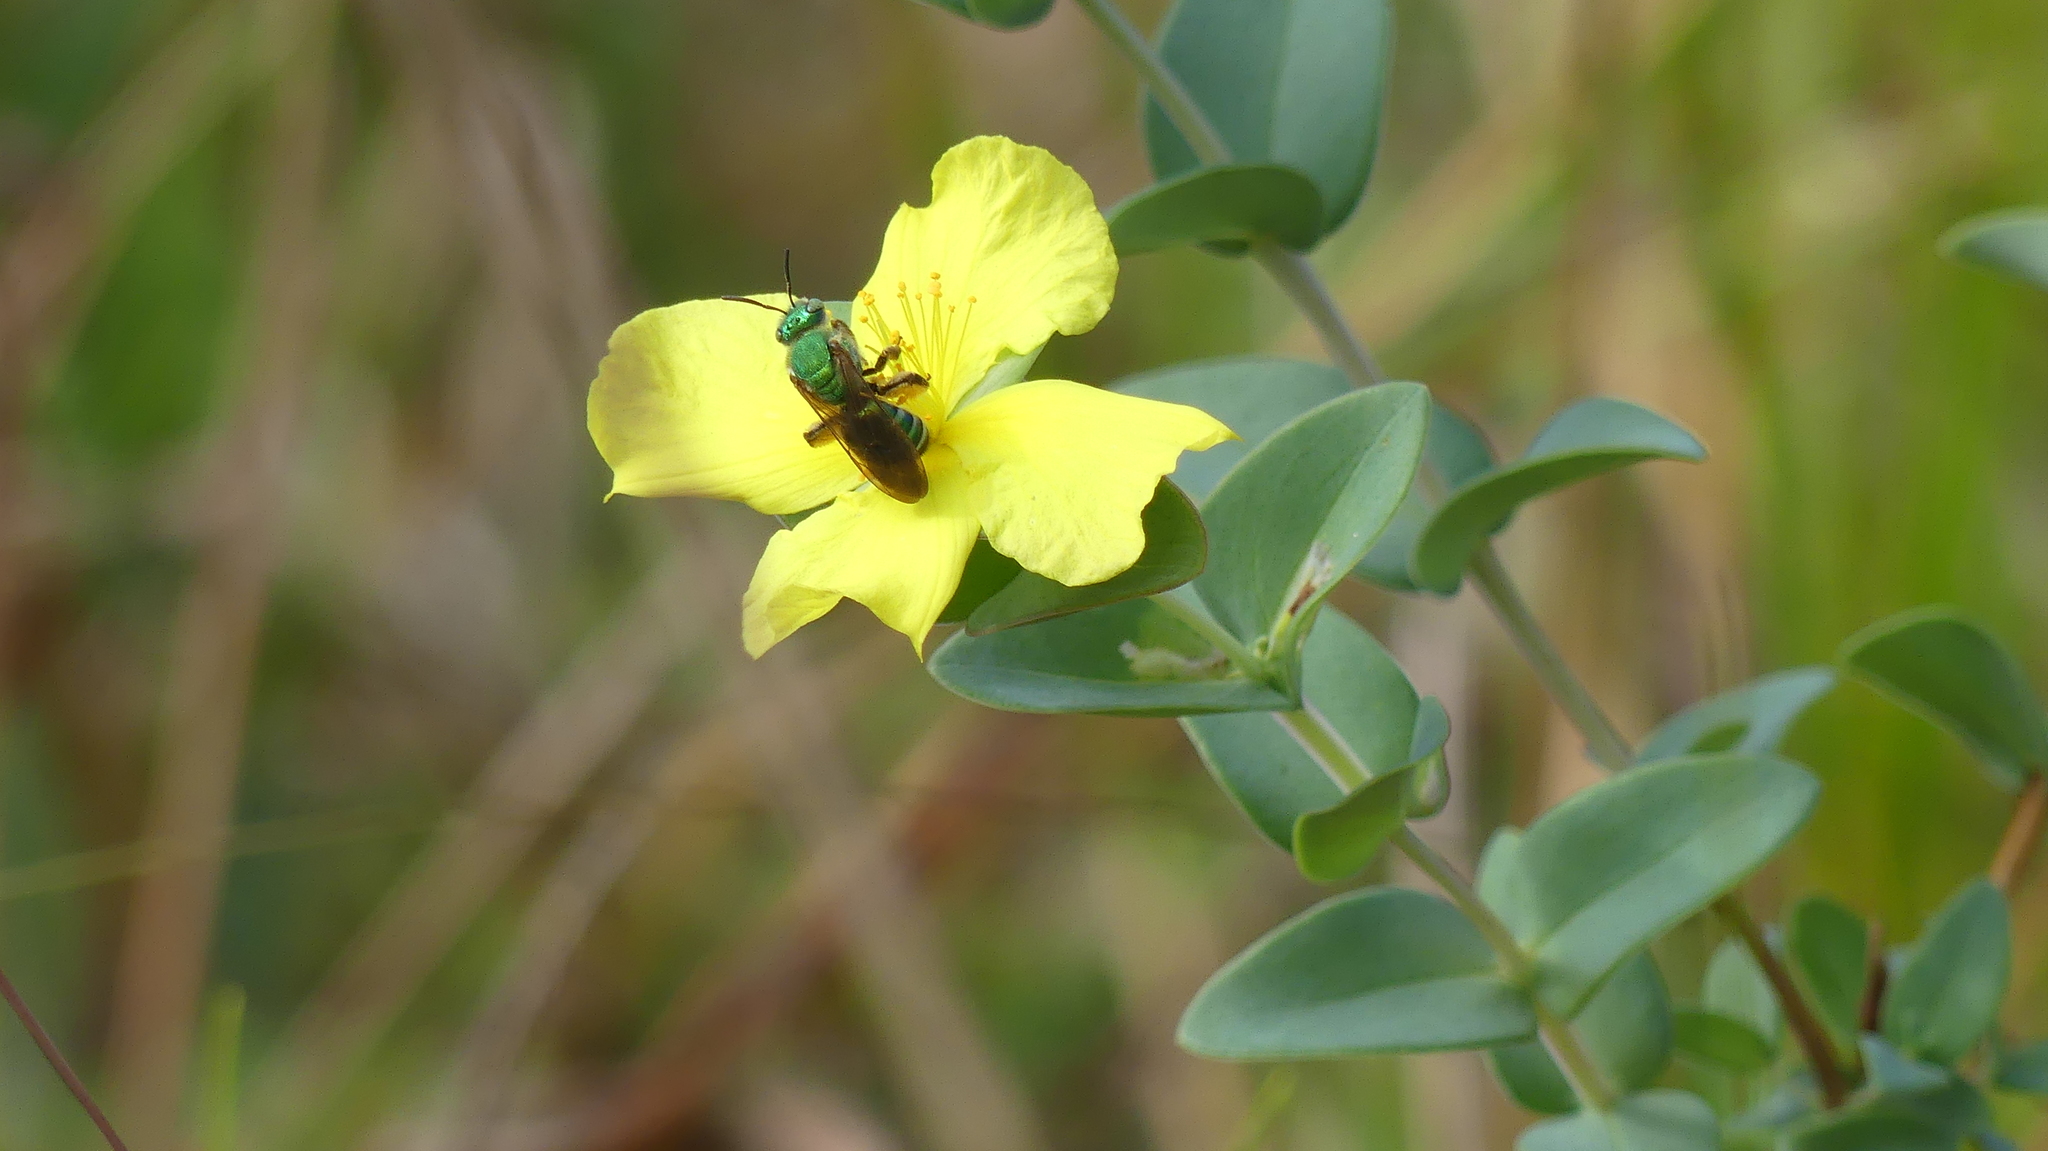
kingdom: Animalia
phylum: Arthropoda
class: Insecta
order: Hymenoptera
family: Halictidae
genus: Agapostemon
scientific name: Agapostemon splendens
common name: Brown-winged striped sweat bee
